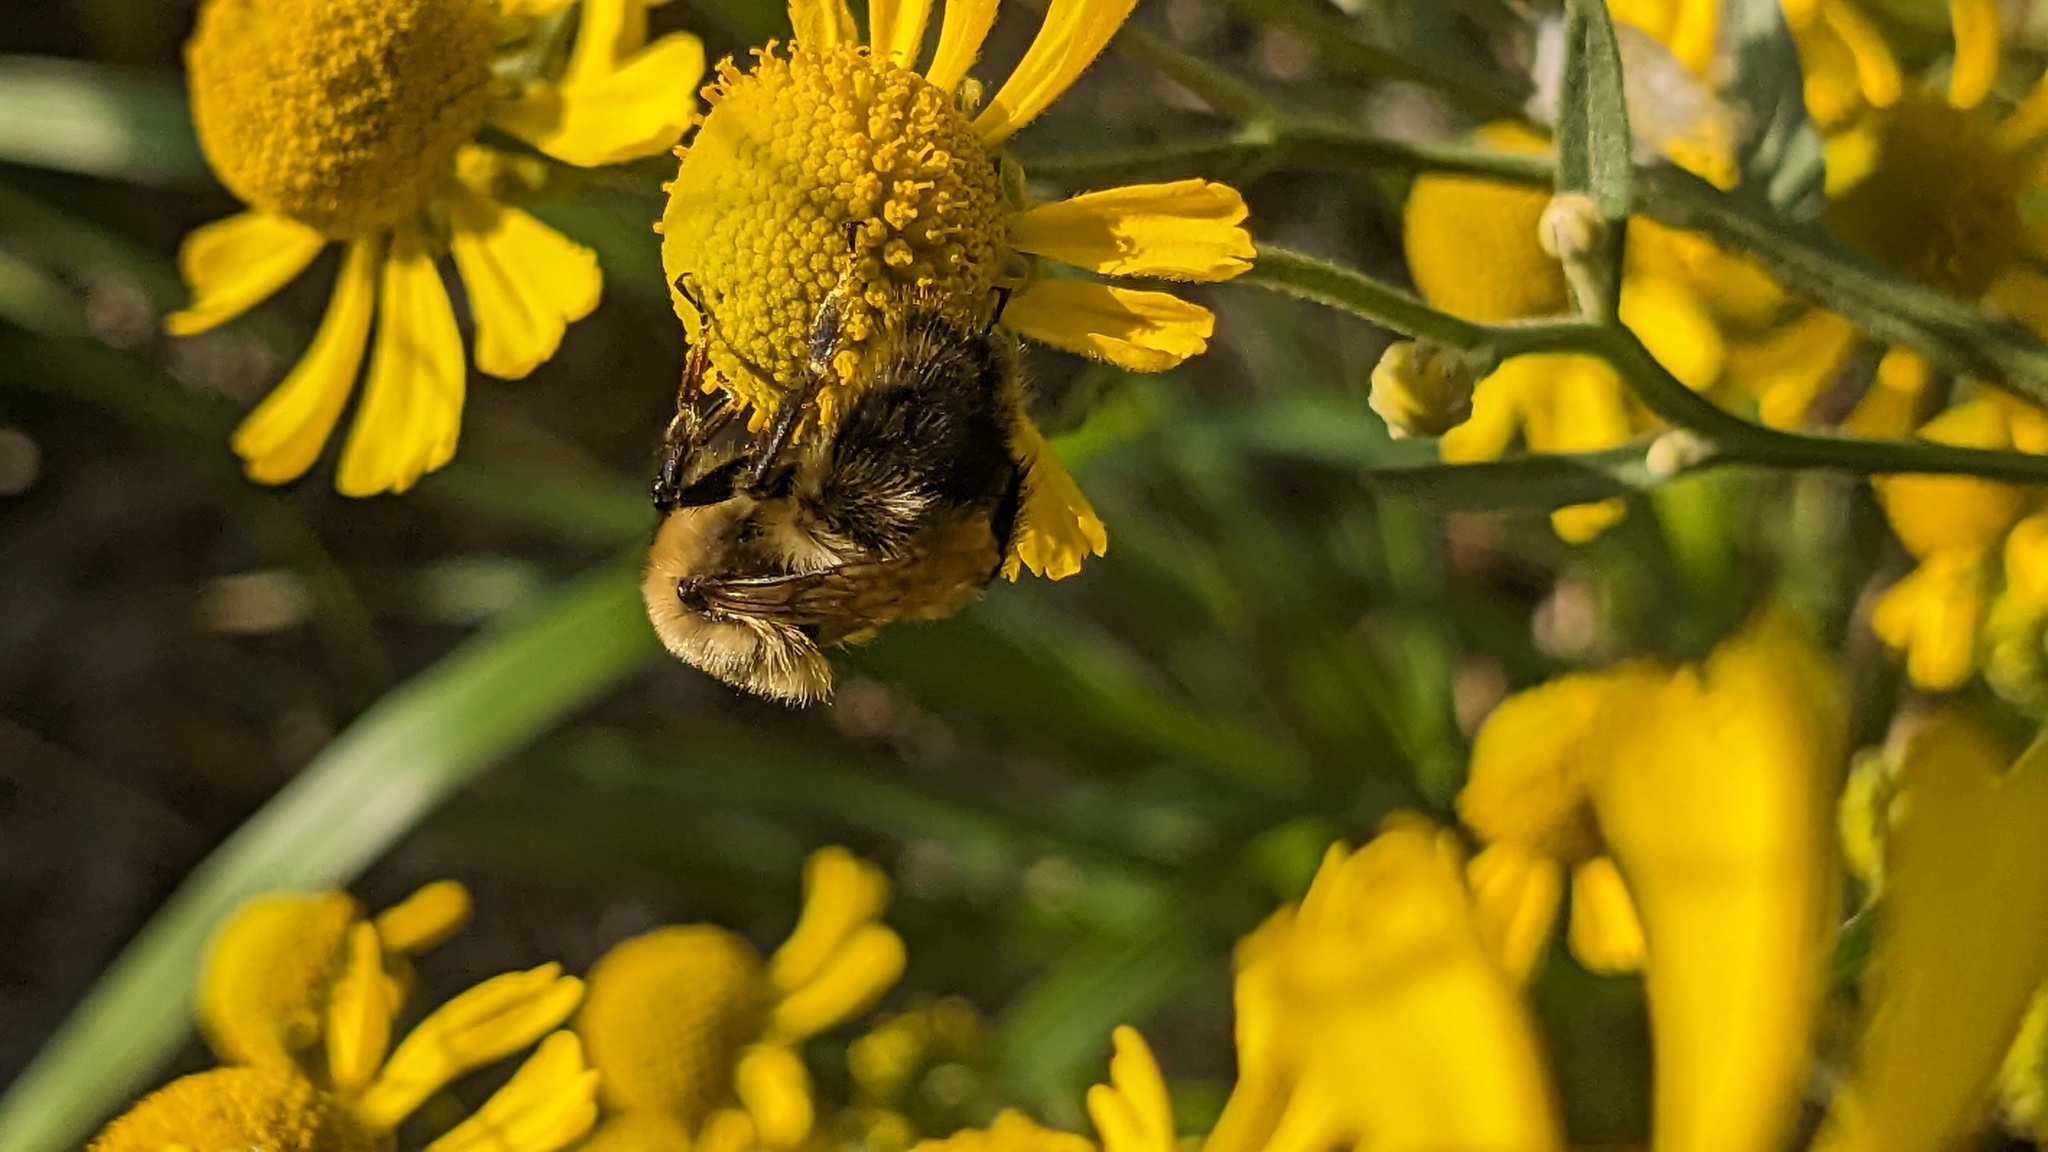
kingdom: Animalia
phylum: Arthropoda
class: Insecta
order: Hymenoptera
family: Apidae
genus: Bombus
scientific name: Bombus rufocinctus
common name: Red-belted bumble bee
